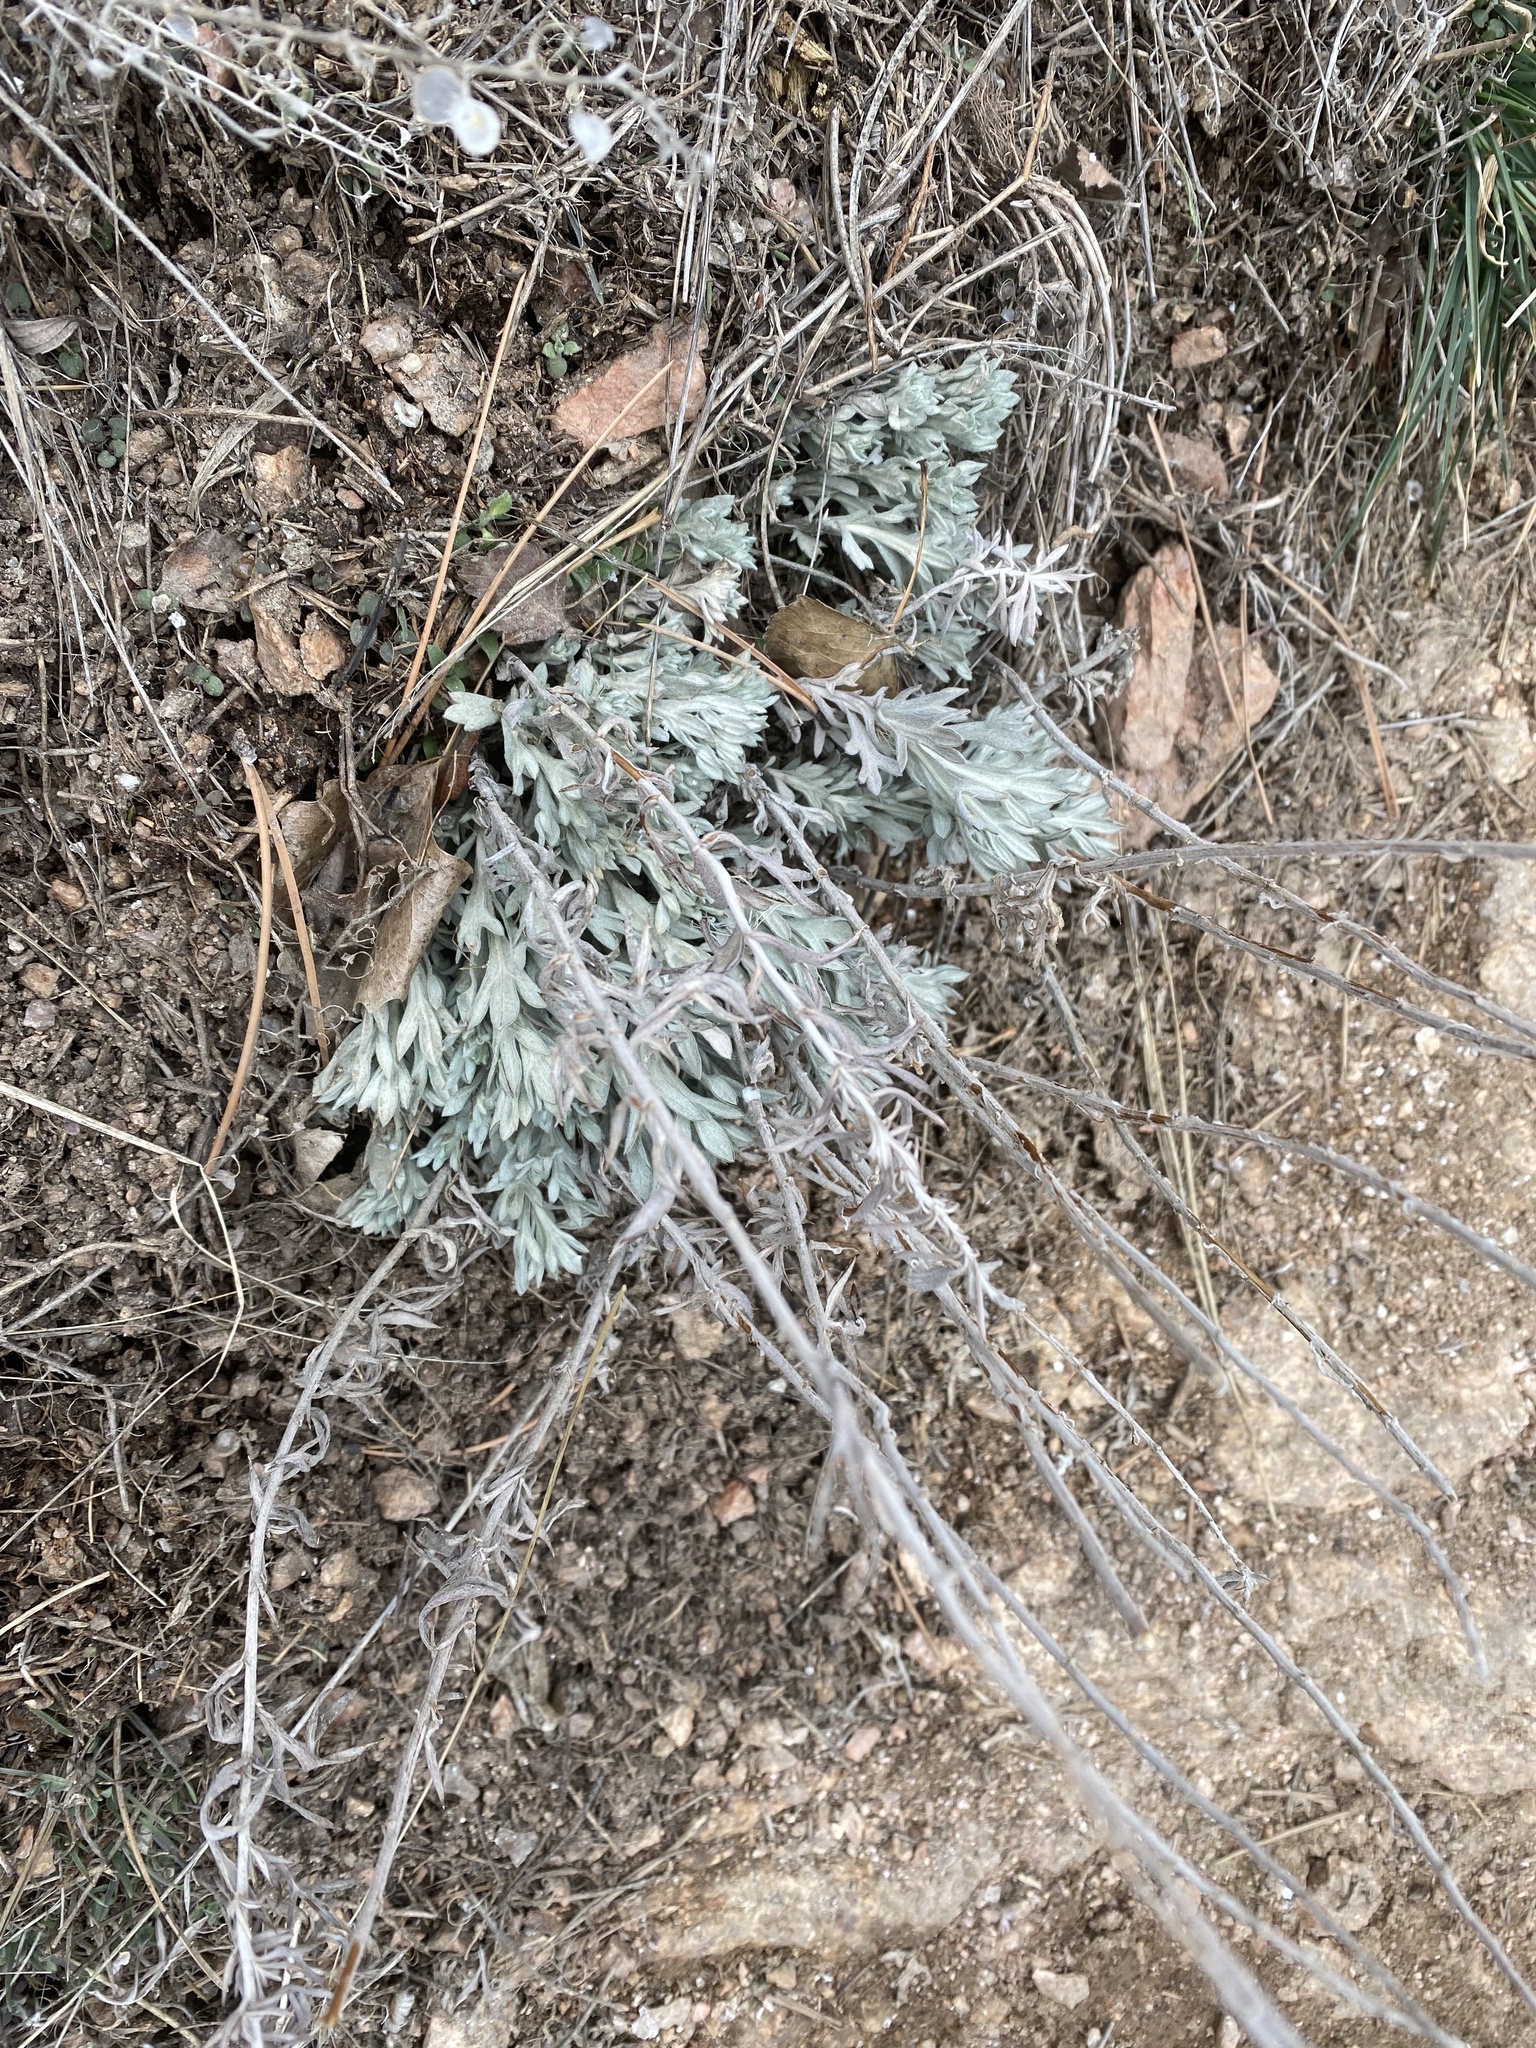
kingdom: Plantae
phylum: Tracheophyta
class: Magnoliopsida
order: Asterales
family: Asteraceae
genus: Artemisia
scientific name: Artemisia ludoviciana
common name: Western mugwort
